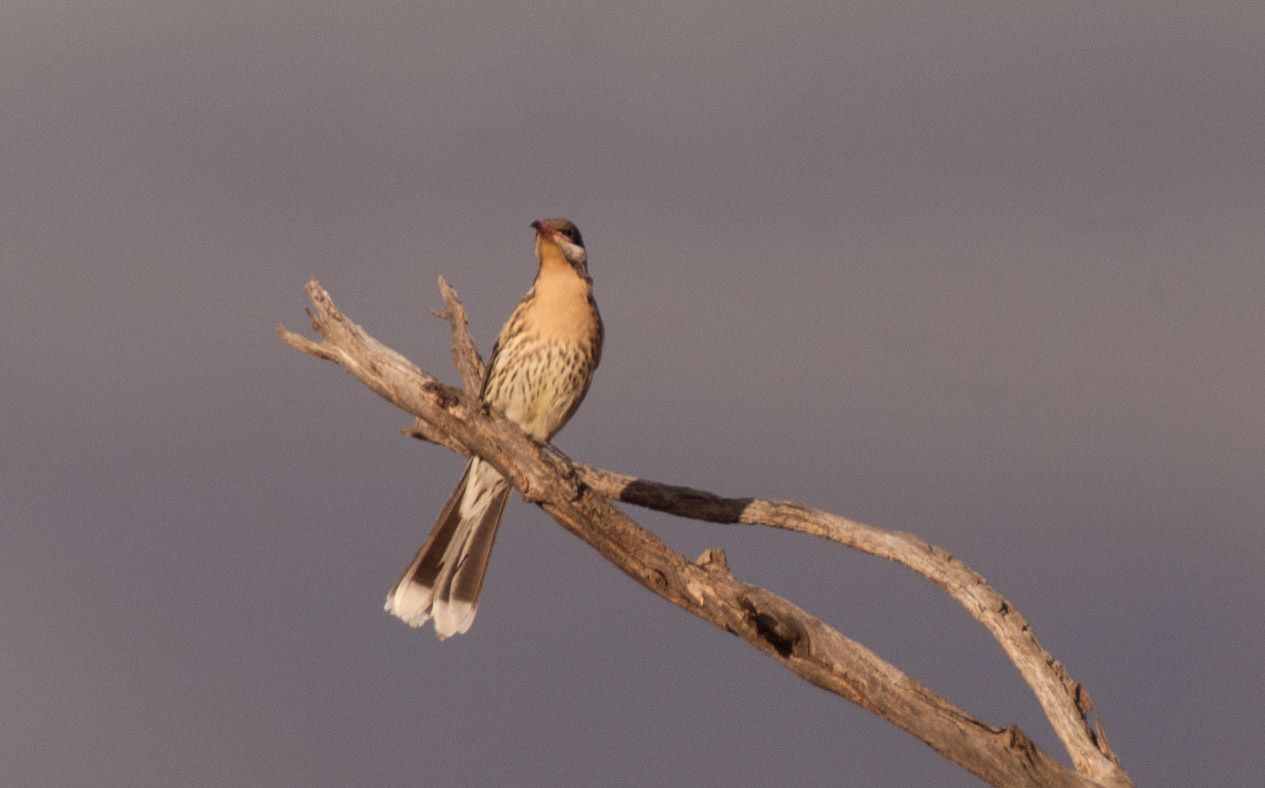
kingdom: Animalia
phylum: Chordata
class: Aves
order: Passeriformes
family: Meliphagidae
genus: Acanthagenys
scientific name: Acanthagenys rufogularis
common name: Spiny-cheeked honeyeater
